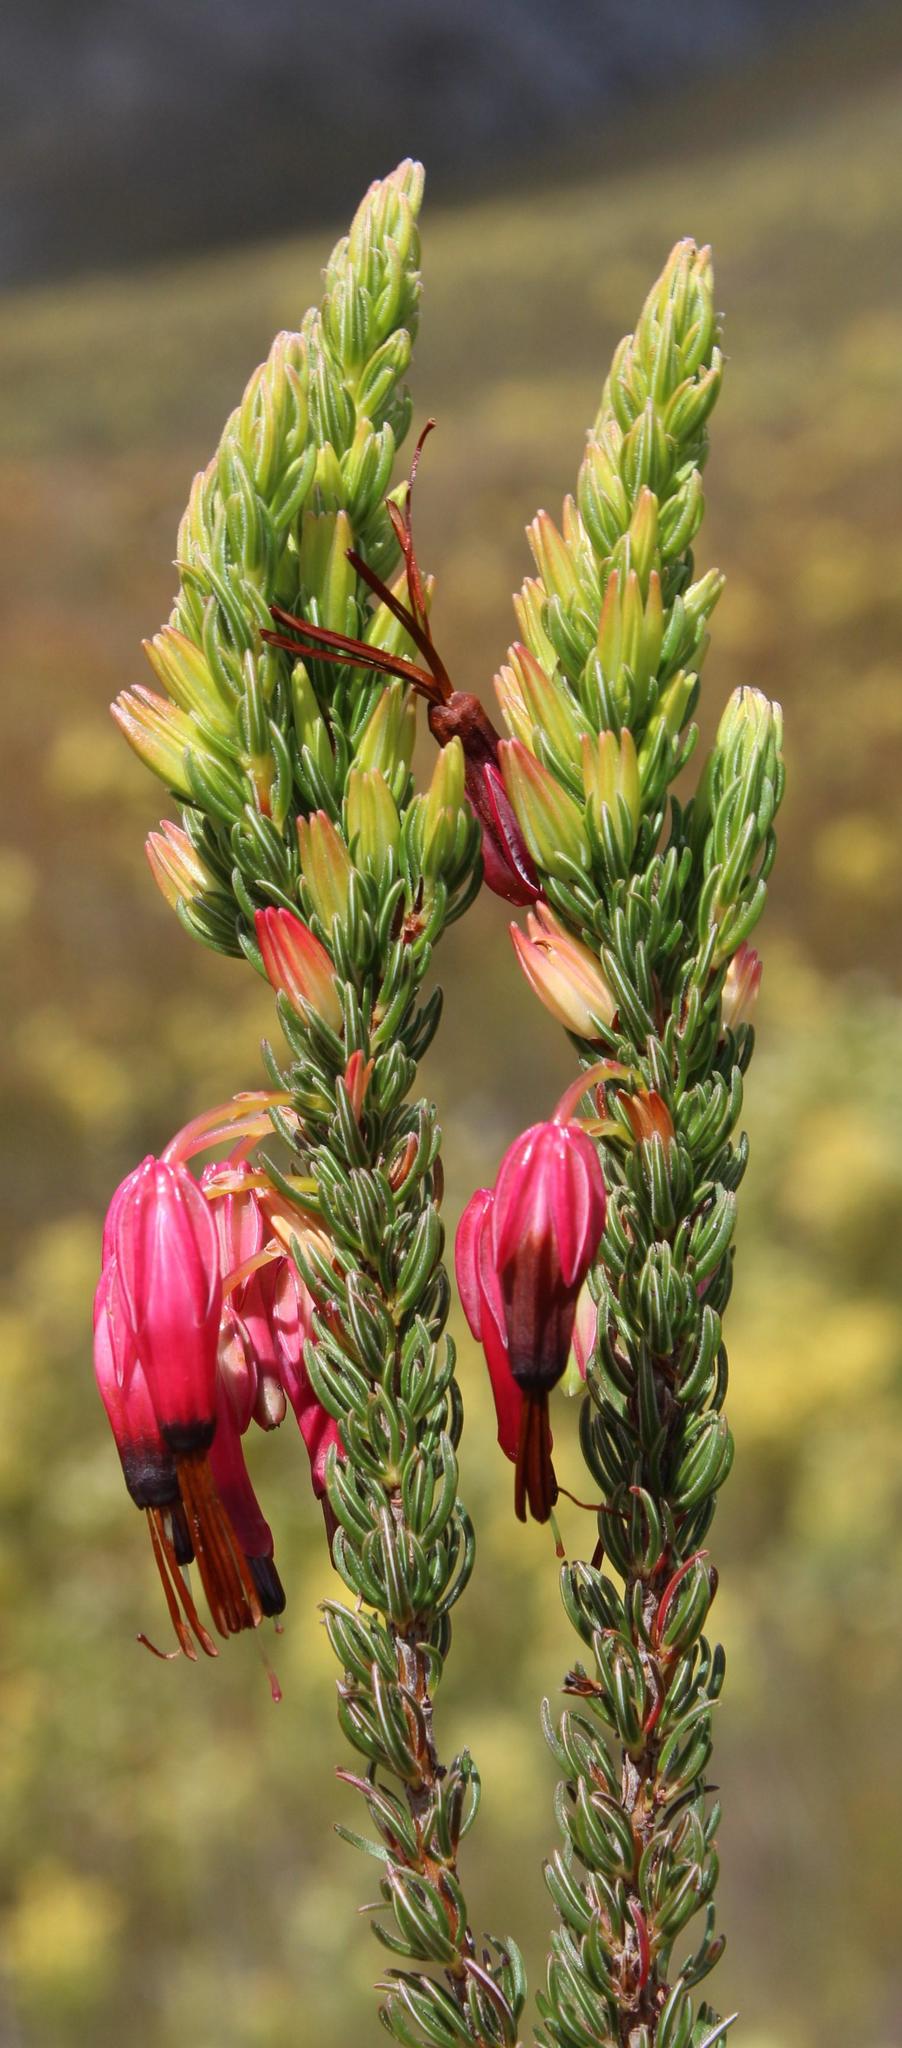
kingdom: Plantae
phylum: Tracheophyta
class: Magnoliopsida
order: Ericales
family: Ericaceae
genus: Erica
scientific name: Erica plukenetii
